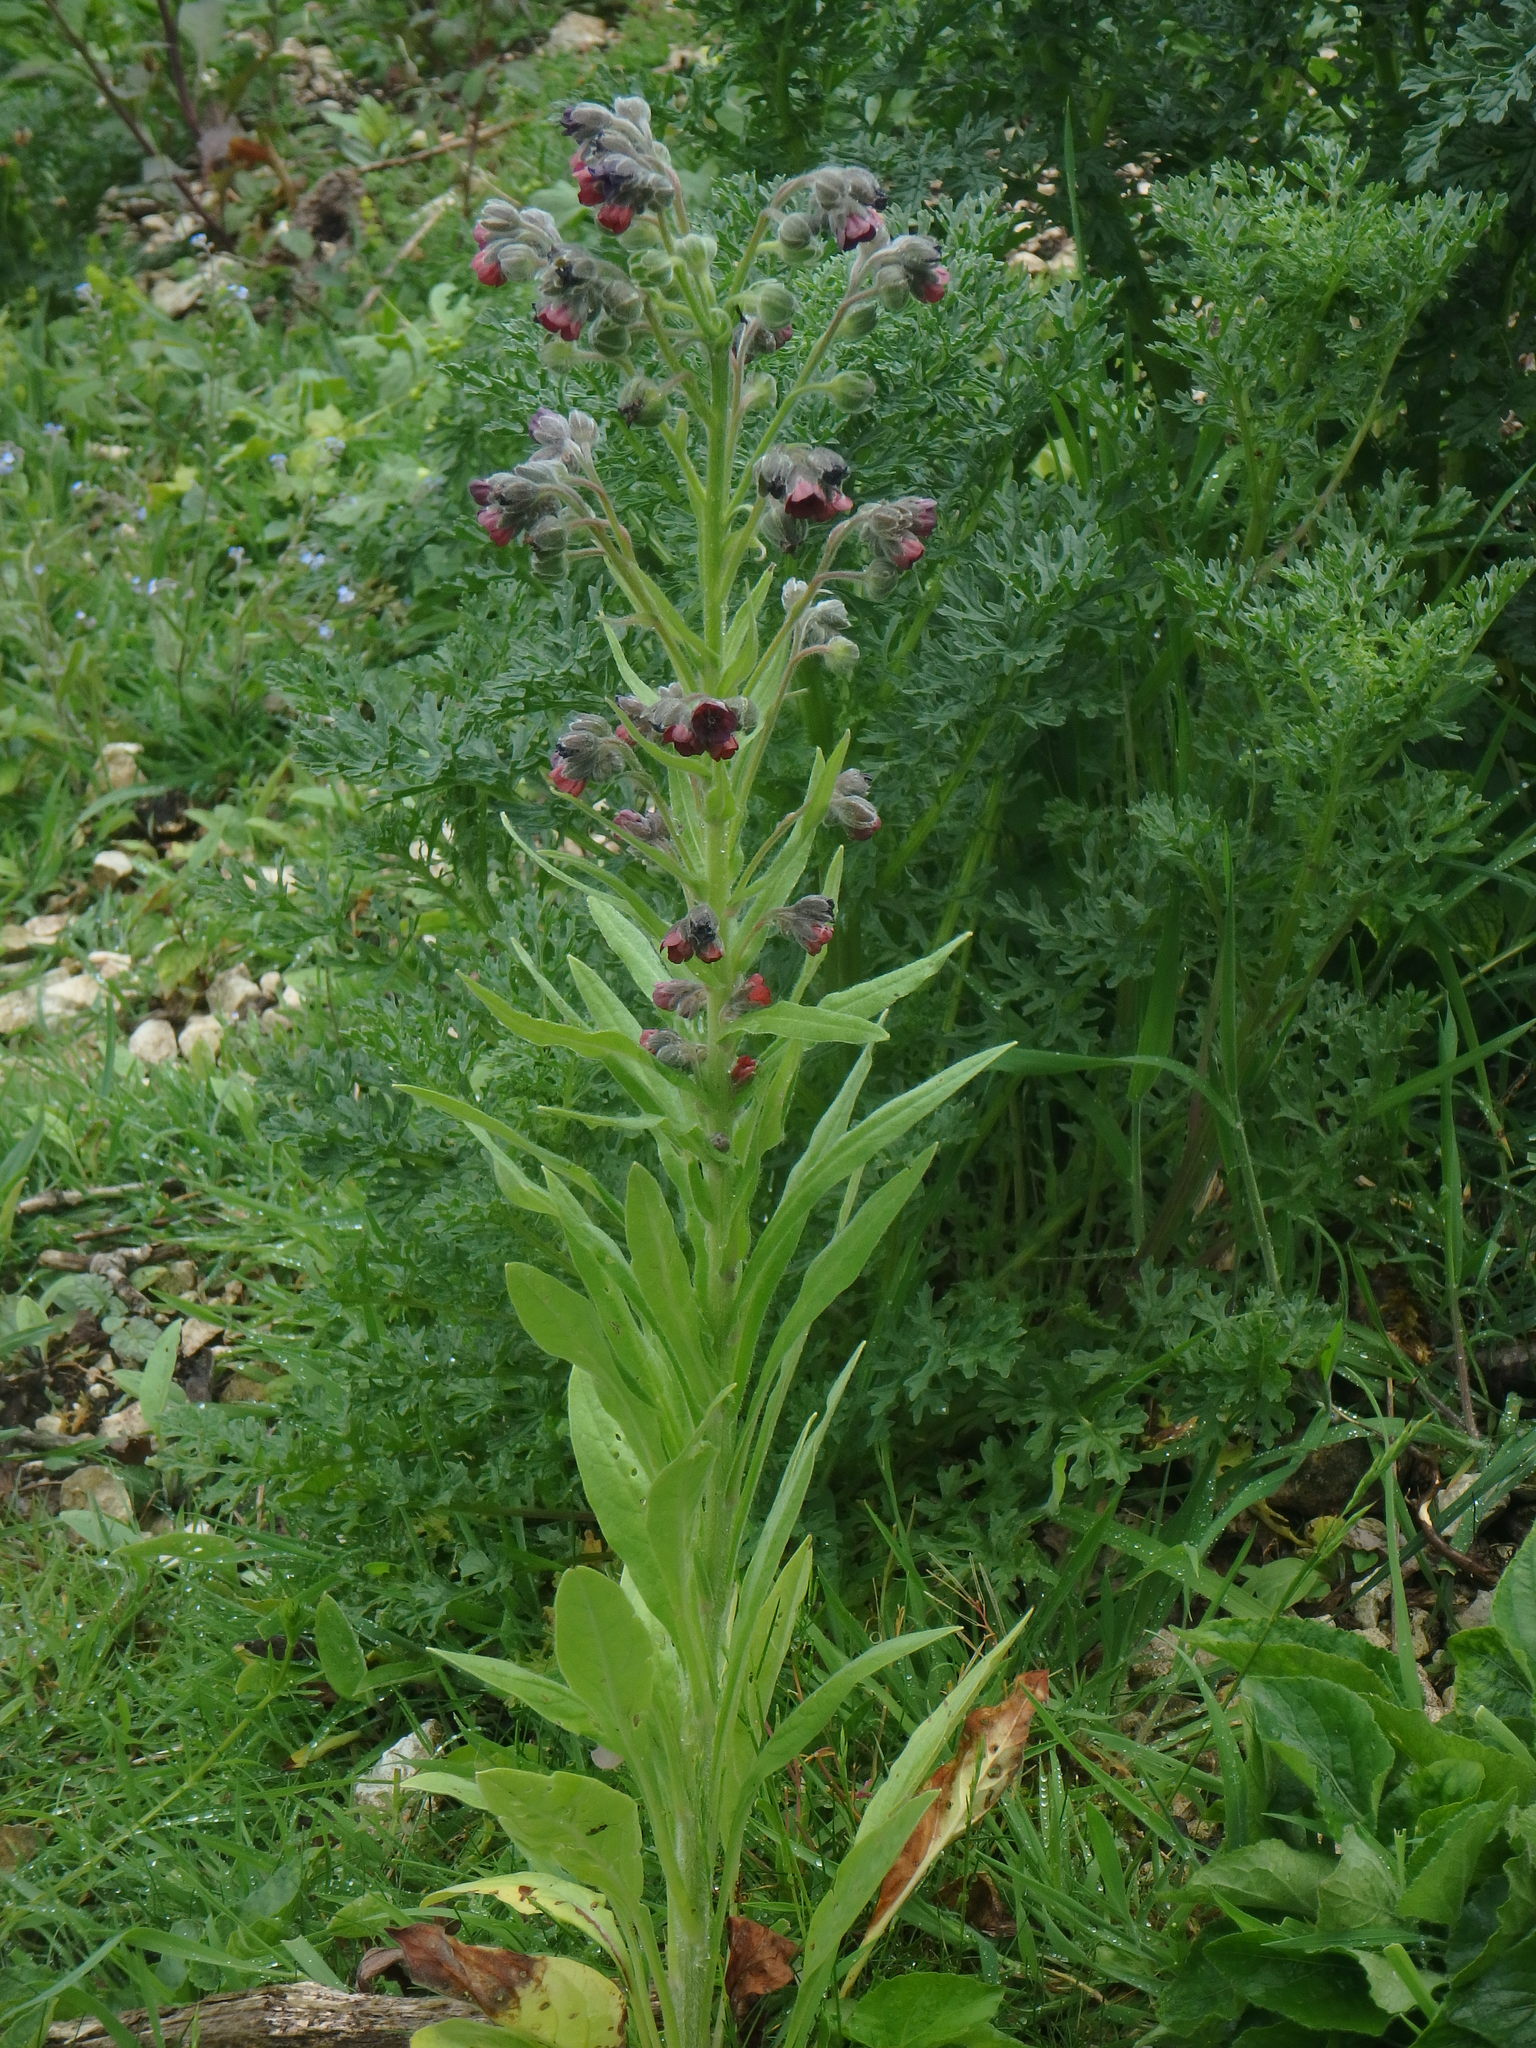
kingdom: Plantae
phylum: Tracheophyta
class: Magnoliopsida
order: Boraginales
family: Boraginaceae
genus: Cynoglossum
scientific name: Cynoglossum officinale
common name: Hound's-tongue
